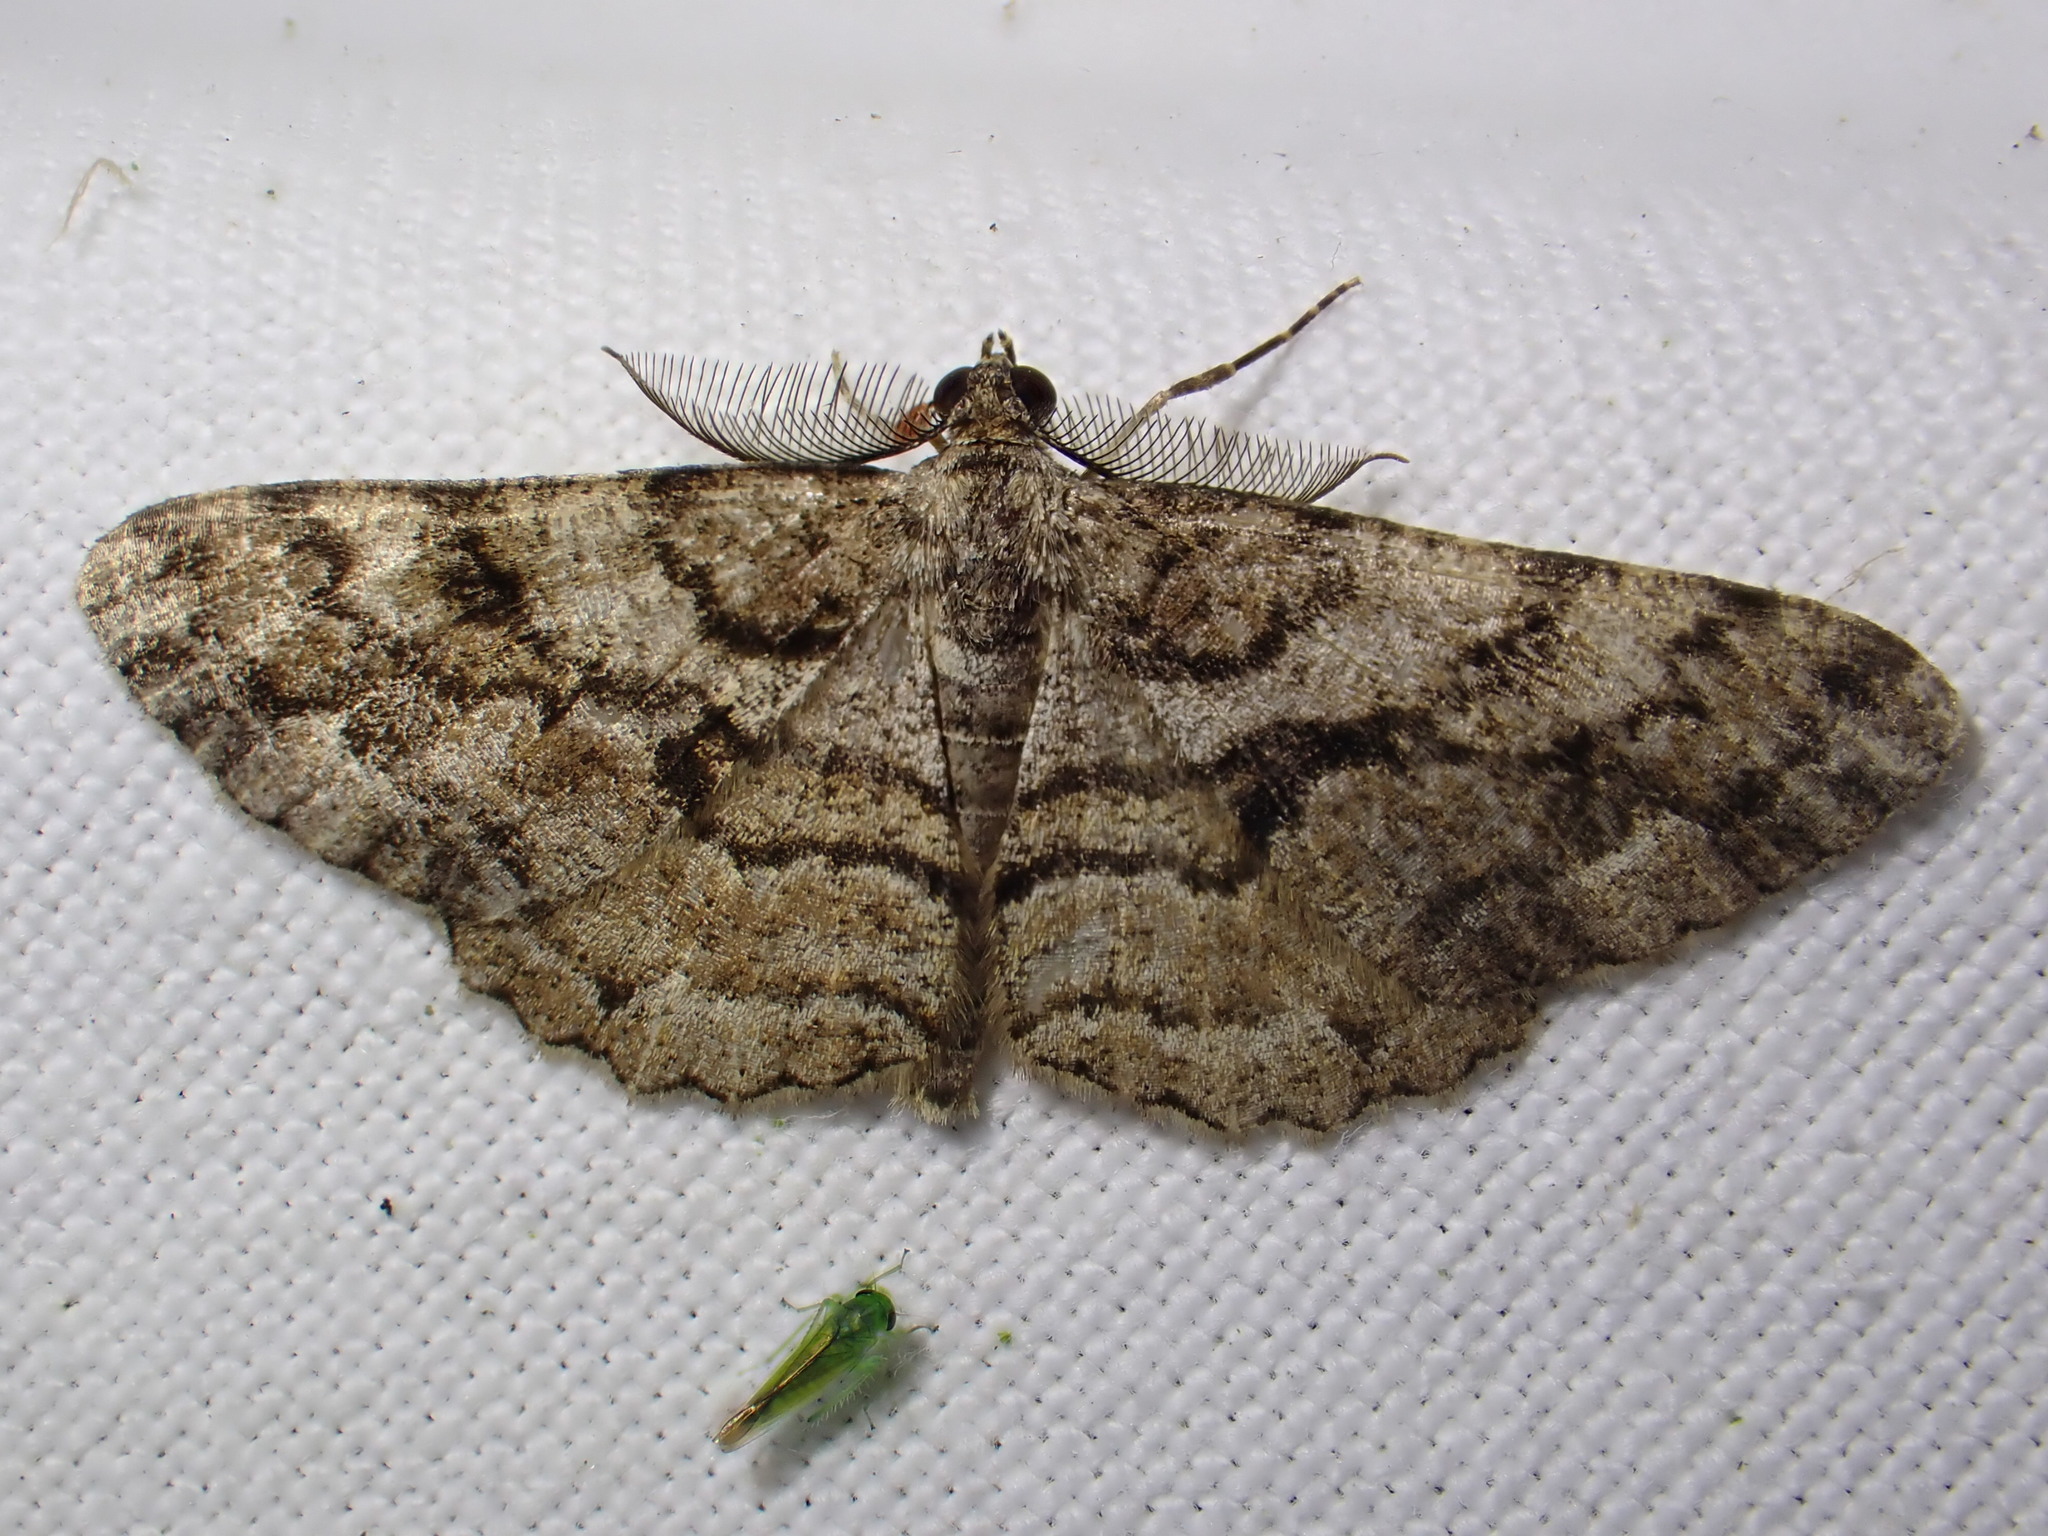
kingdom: Animalia
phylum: Arthropoda
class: Insecta
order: Lepidoptera
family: Geometridae
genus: Peribatodes
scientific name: Peribatodes secundaria
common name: Feathered beauty
